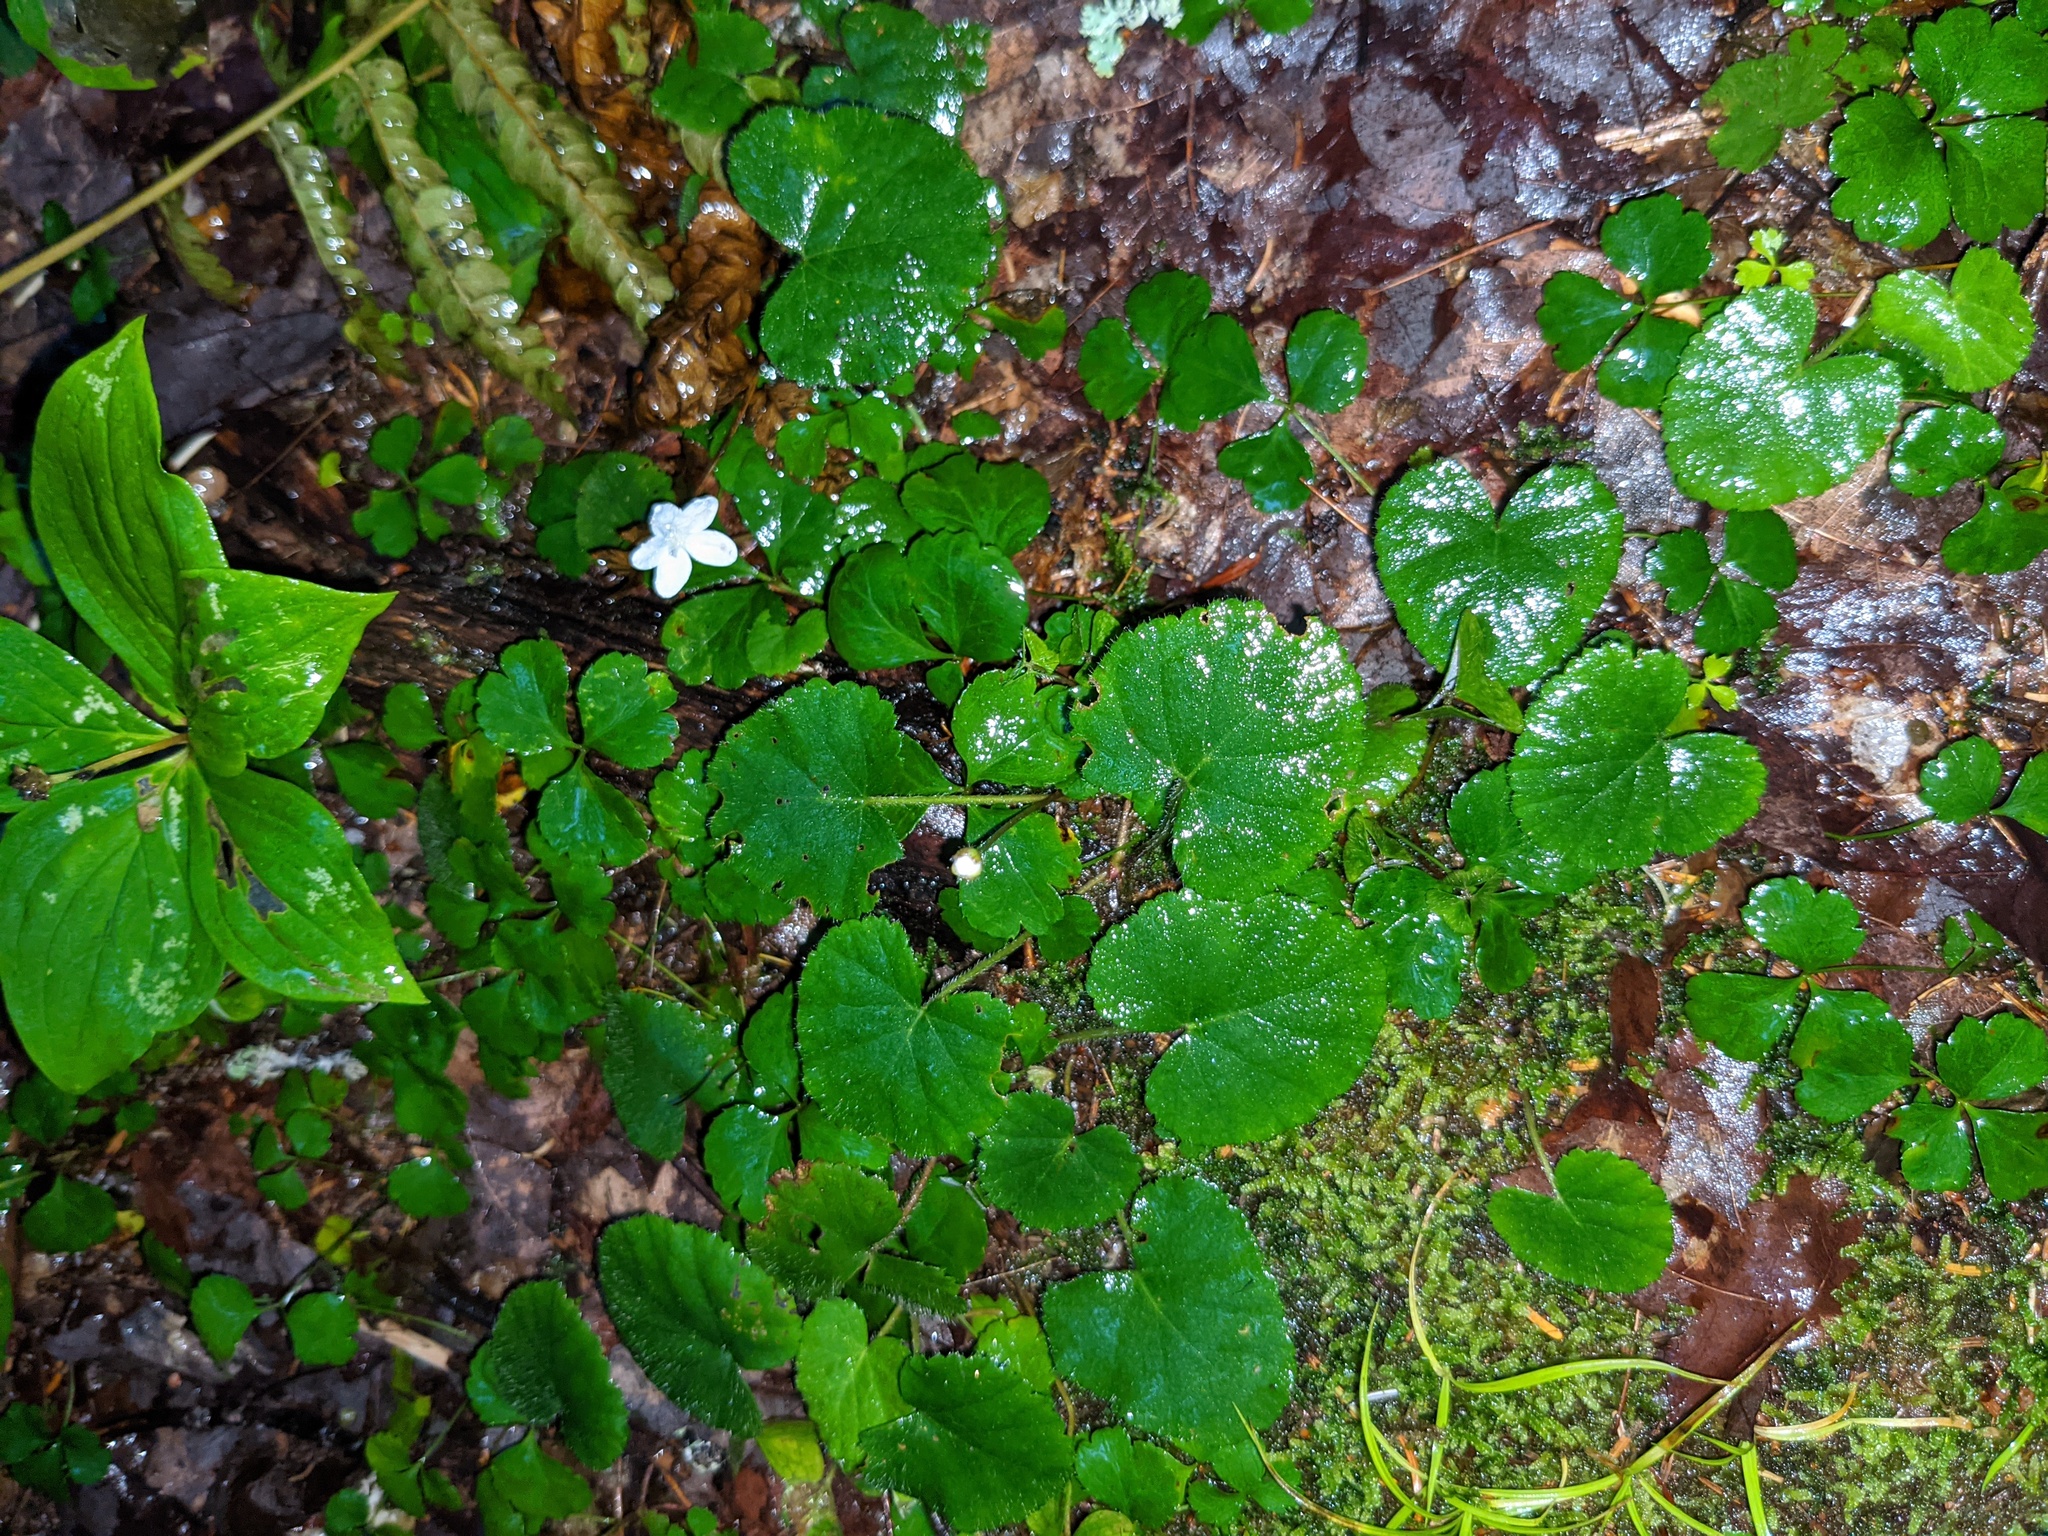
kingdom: Plantae
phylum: Tracheophyta
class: Magnoliopsida
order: Rosales
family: Rosaceae
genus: Dalibarda
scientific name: Dalibarda repens
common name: Dewdrop
